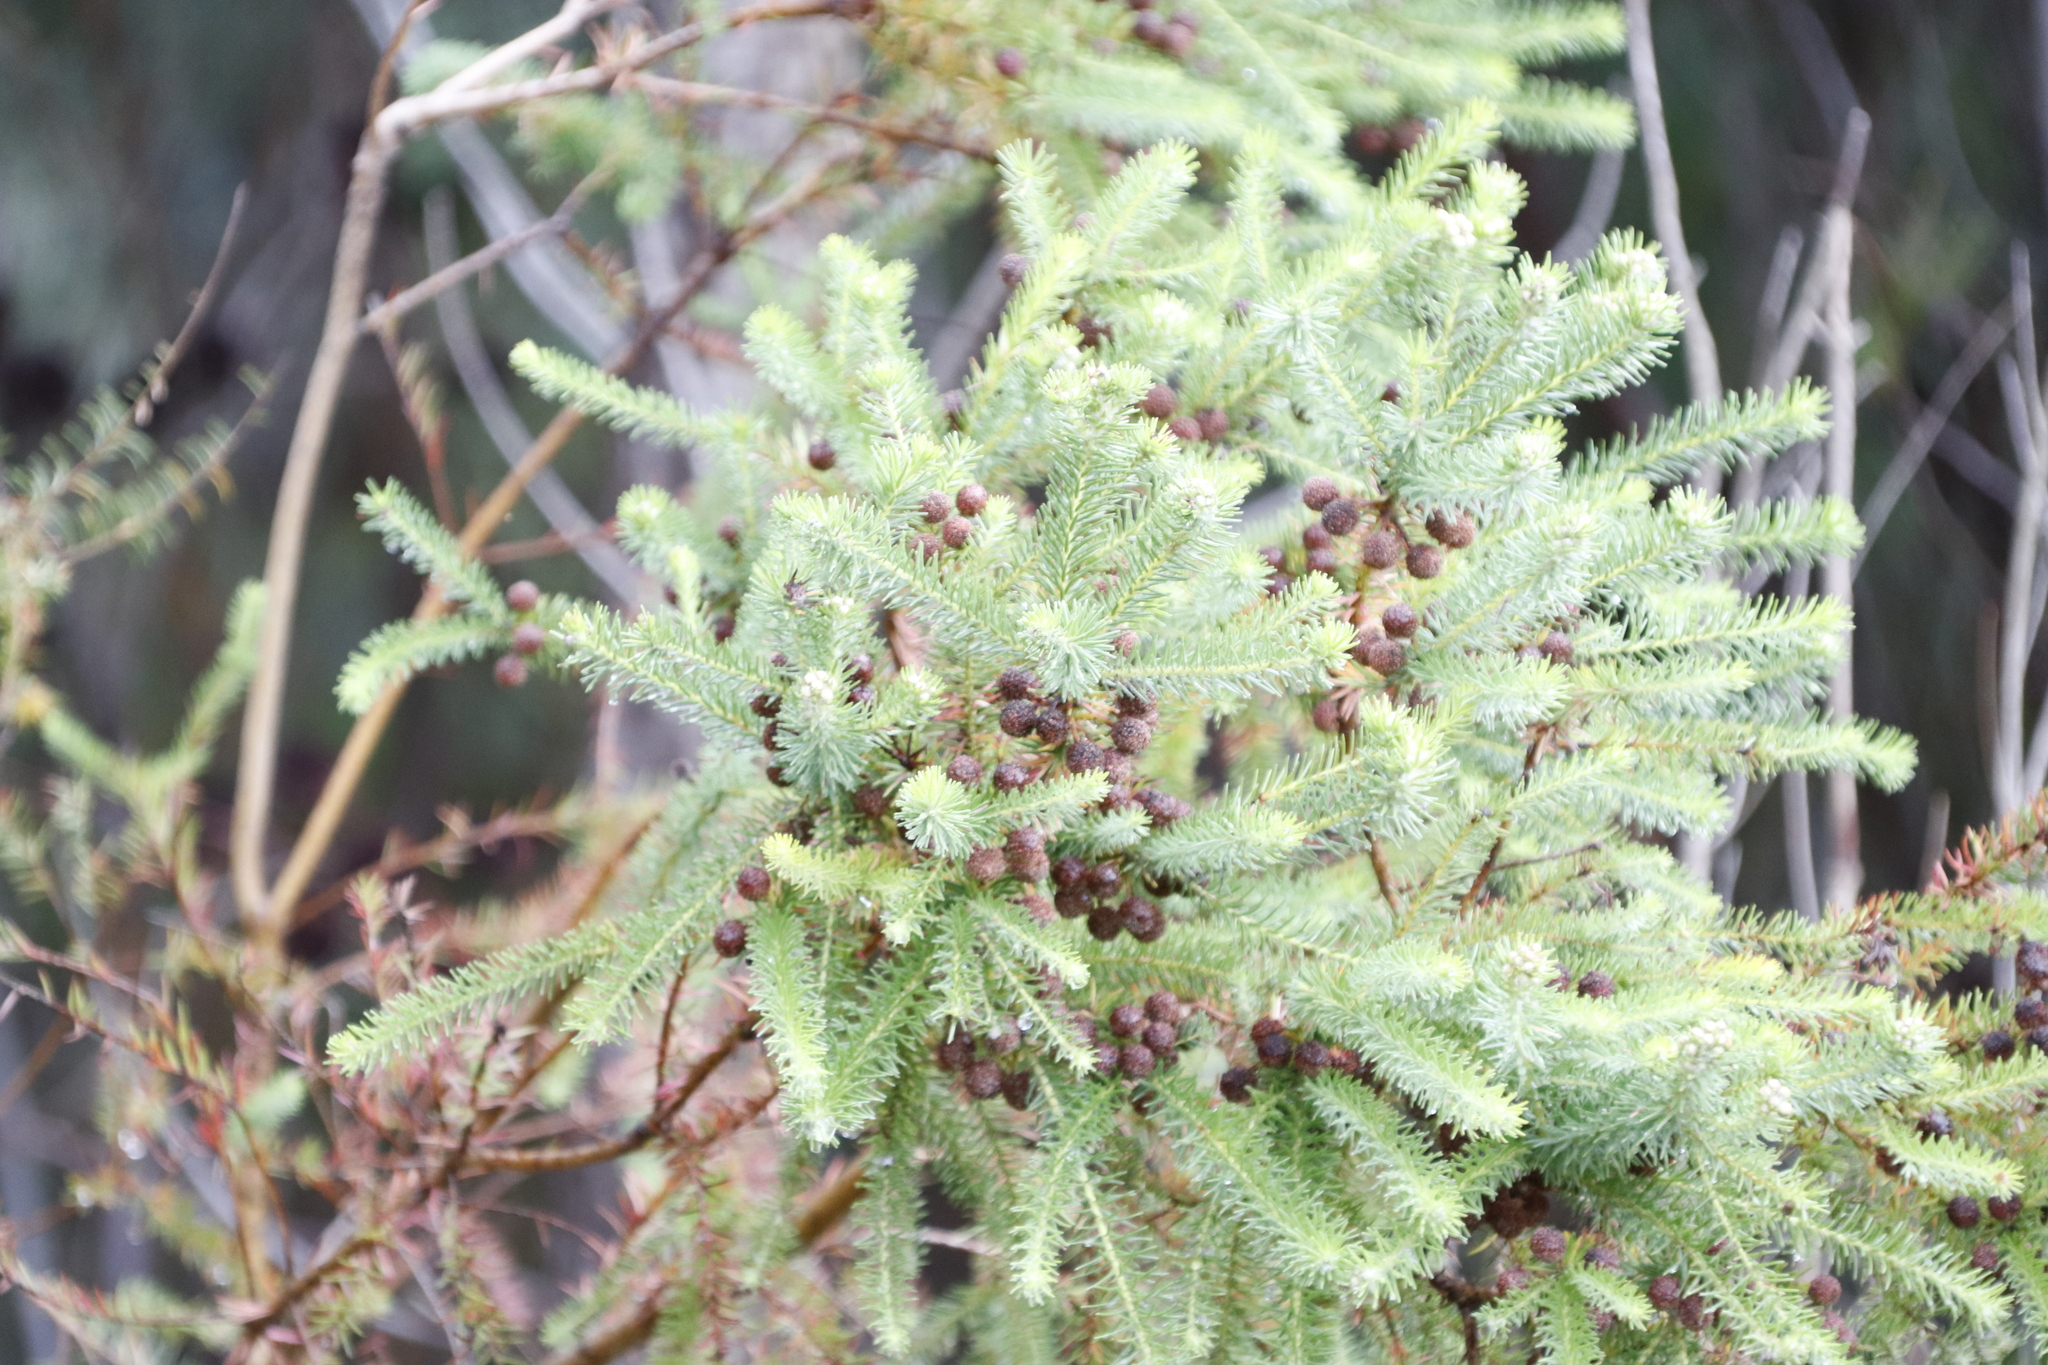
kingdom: Plantae
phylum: Tracheophyta
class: Magnoliopsida
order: Bruniales
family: Bruniaceae
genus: Berzelia
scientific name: Berzelia squarrosa
